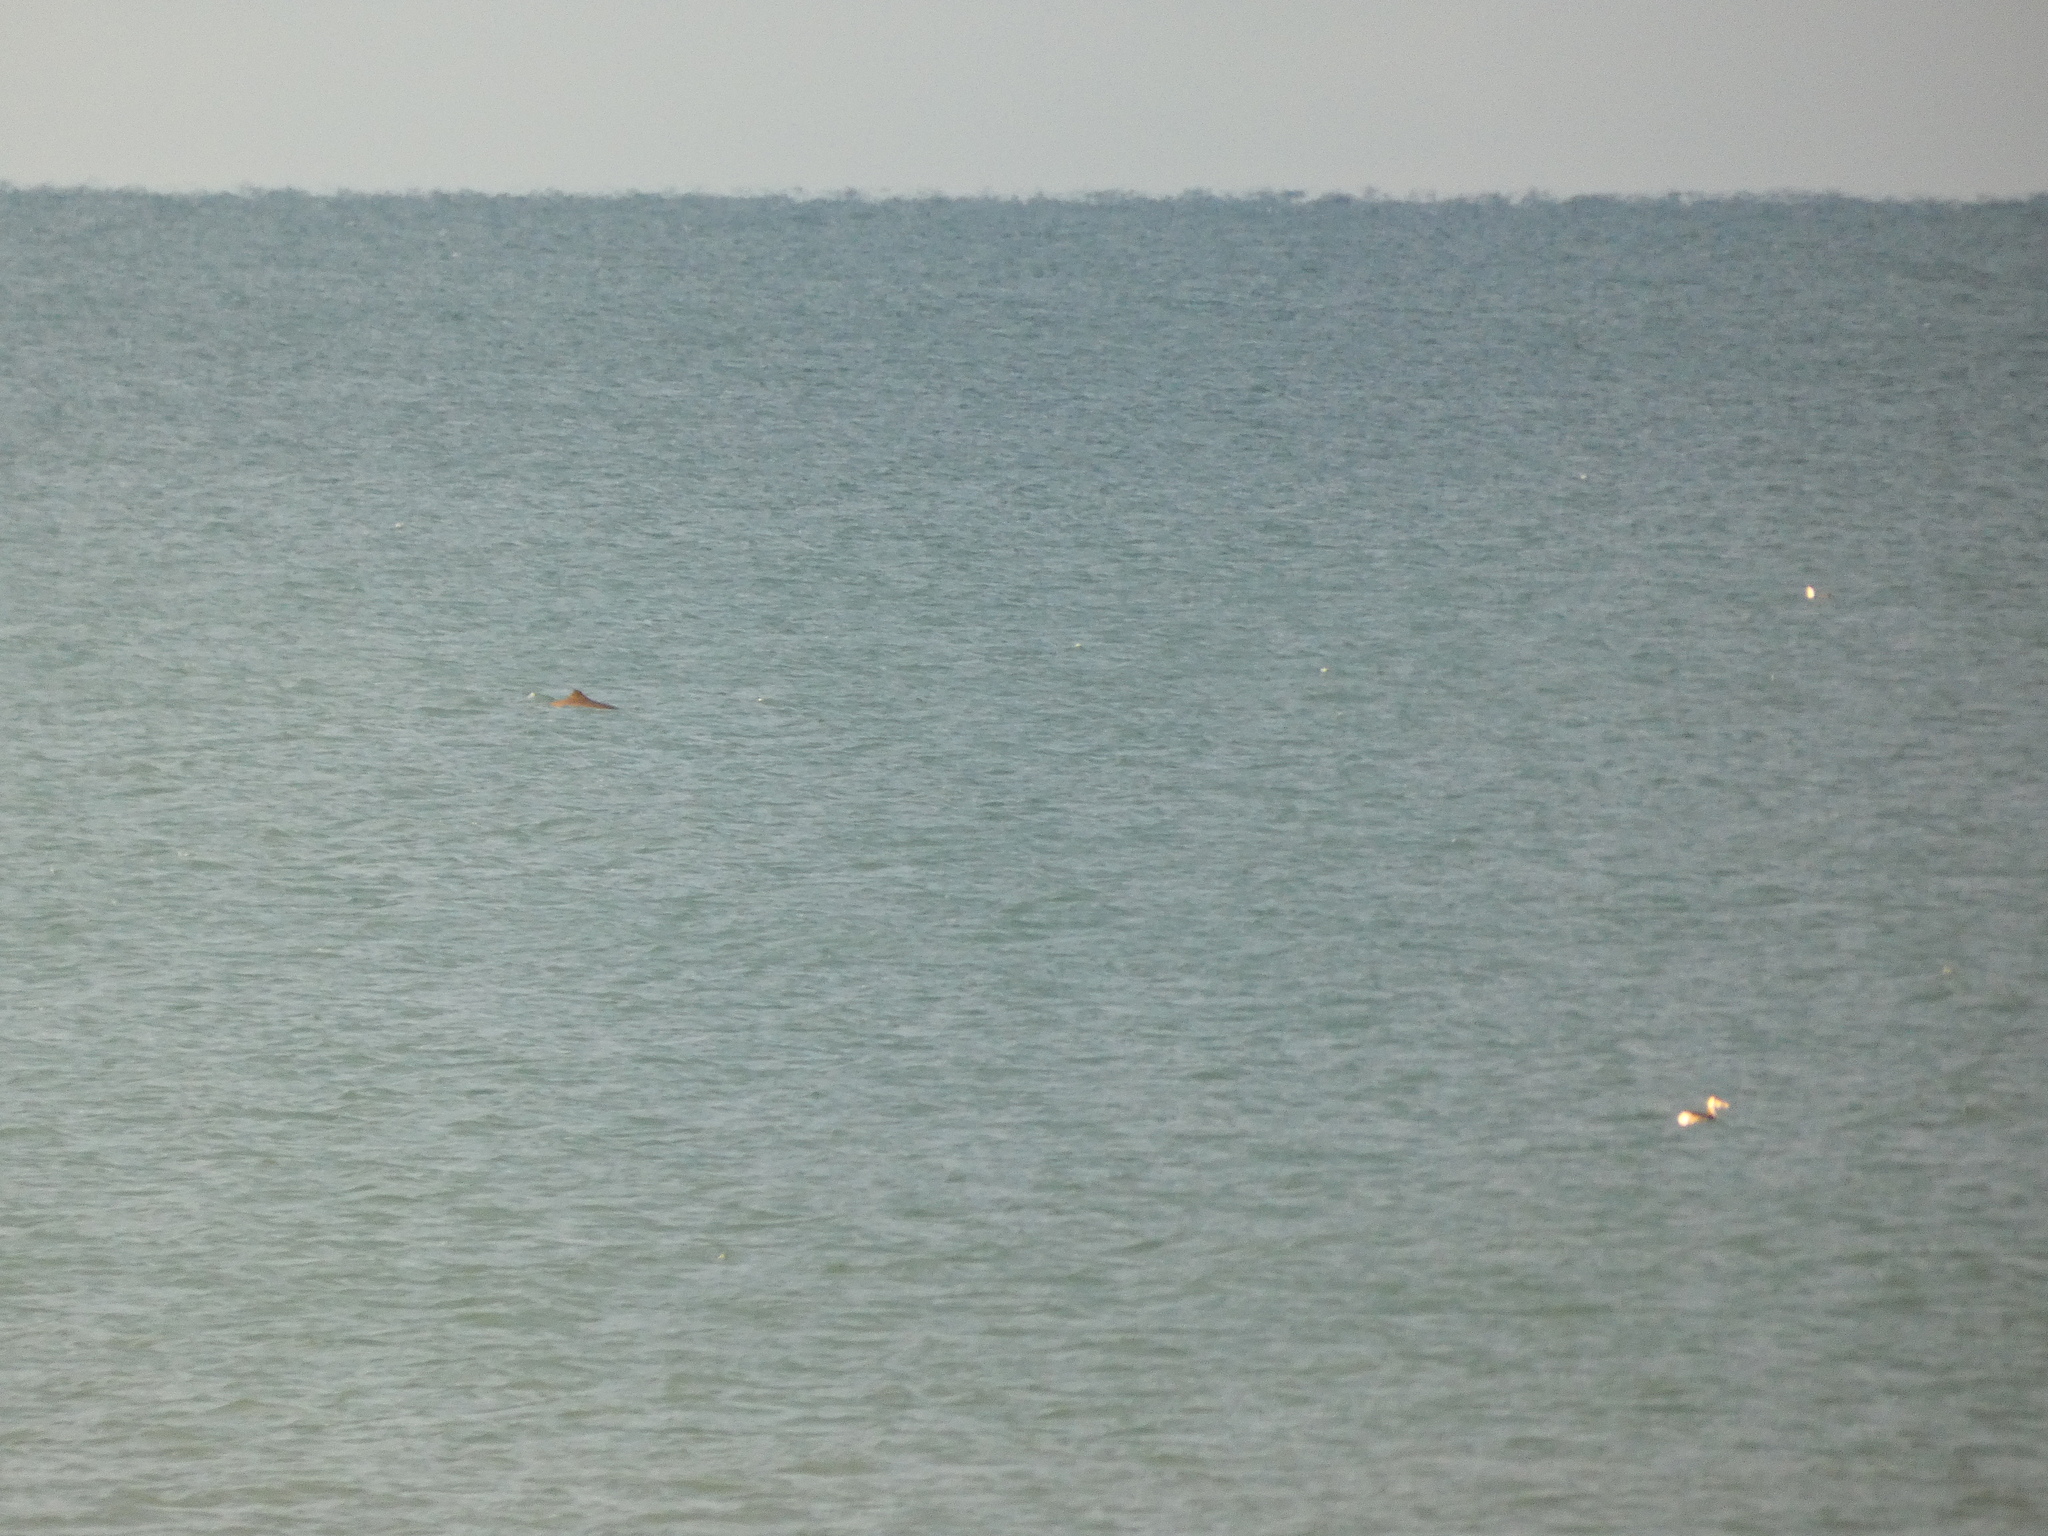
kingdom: Animalia
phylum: Chordata
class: Mammalia
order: Cetacea
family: Phocoenidae
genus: Phocoena
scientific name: Phocoena phocoena
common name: Harbor porpoise
